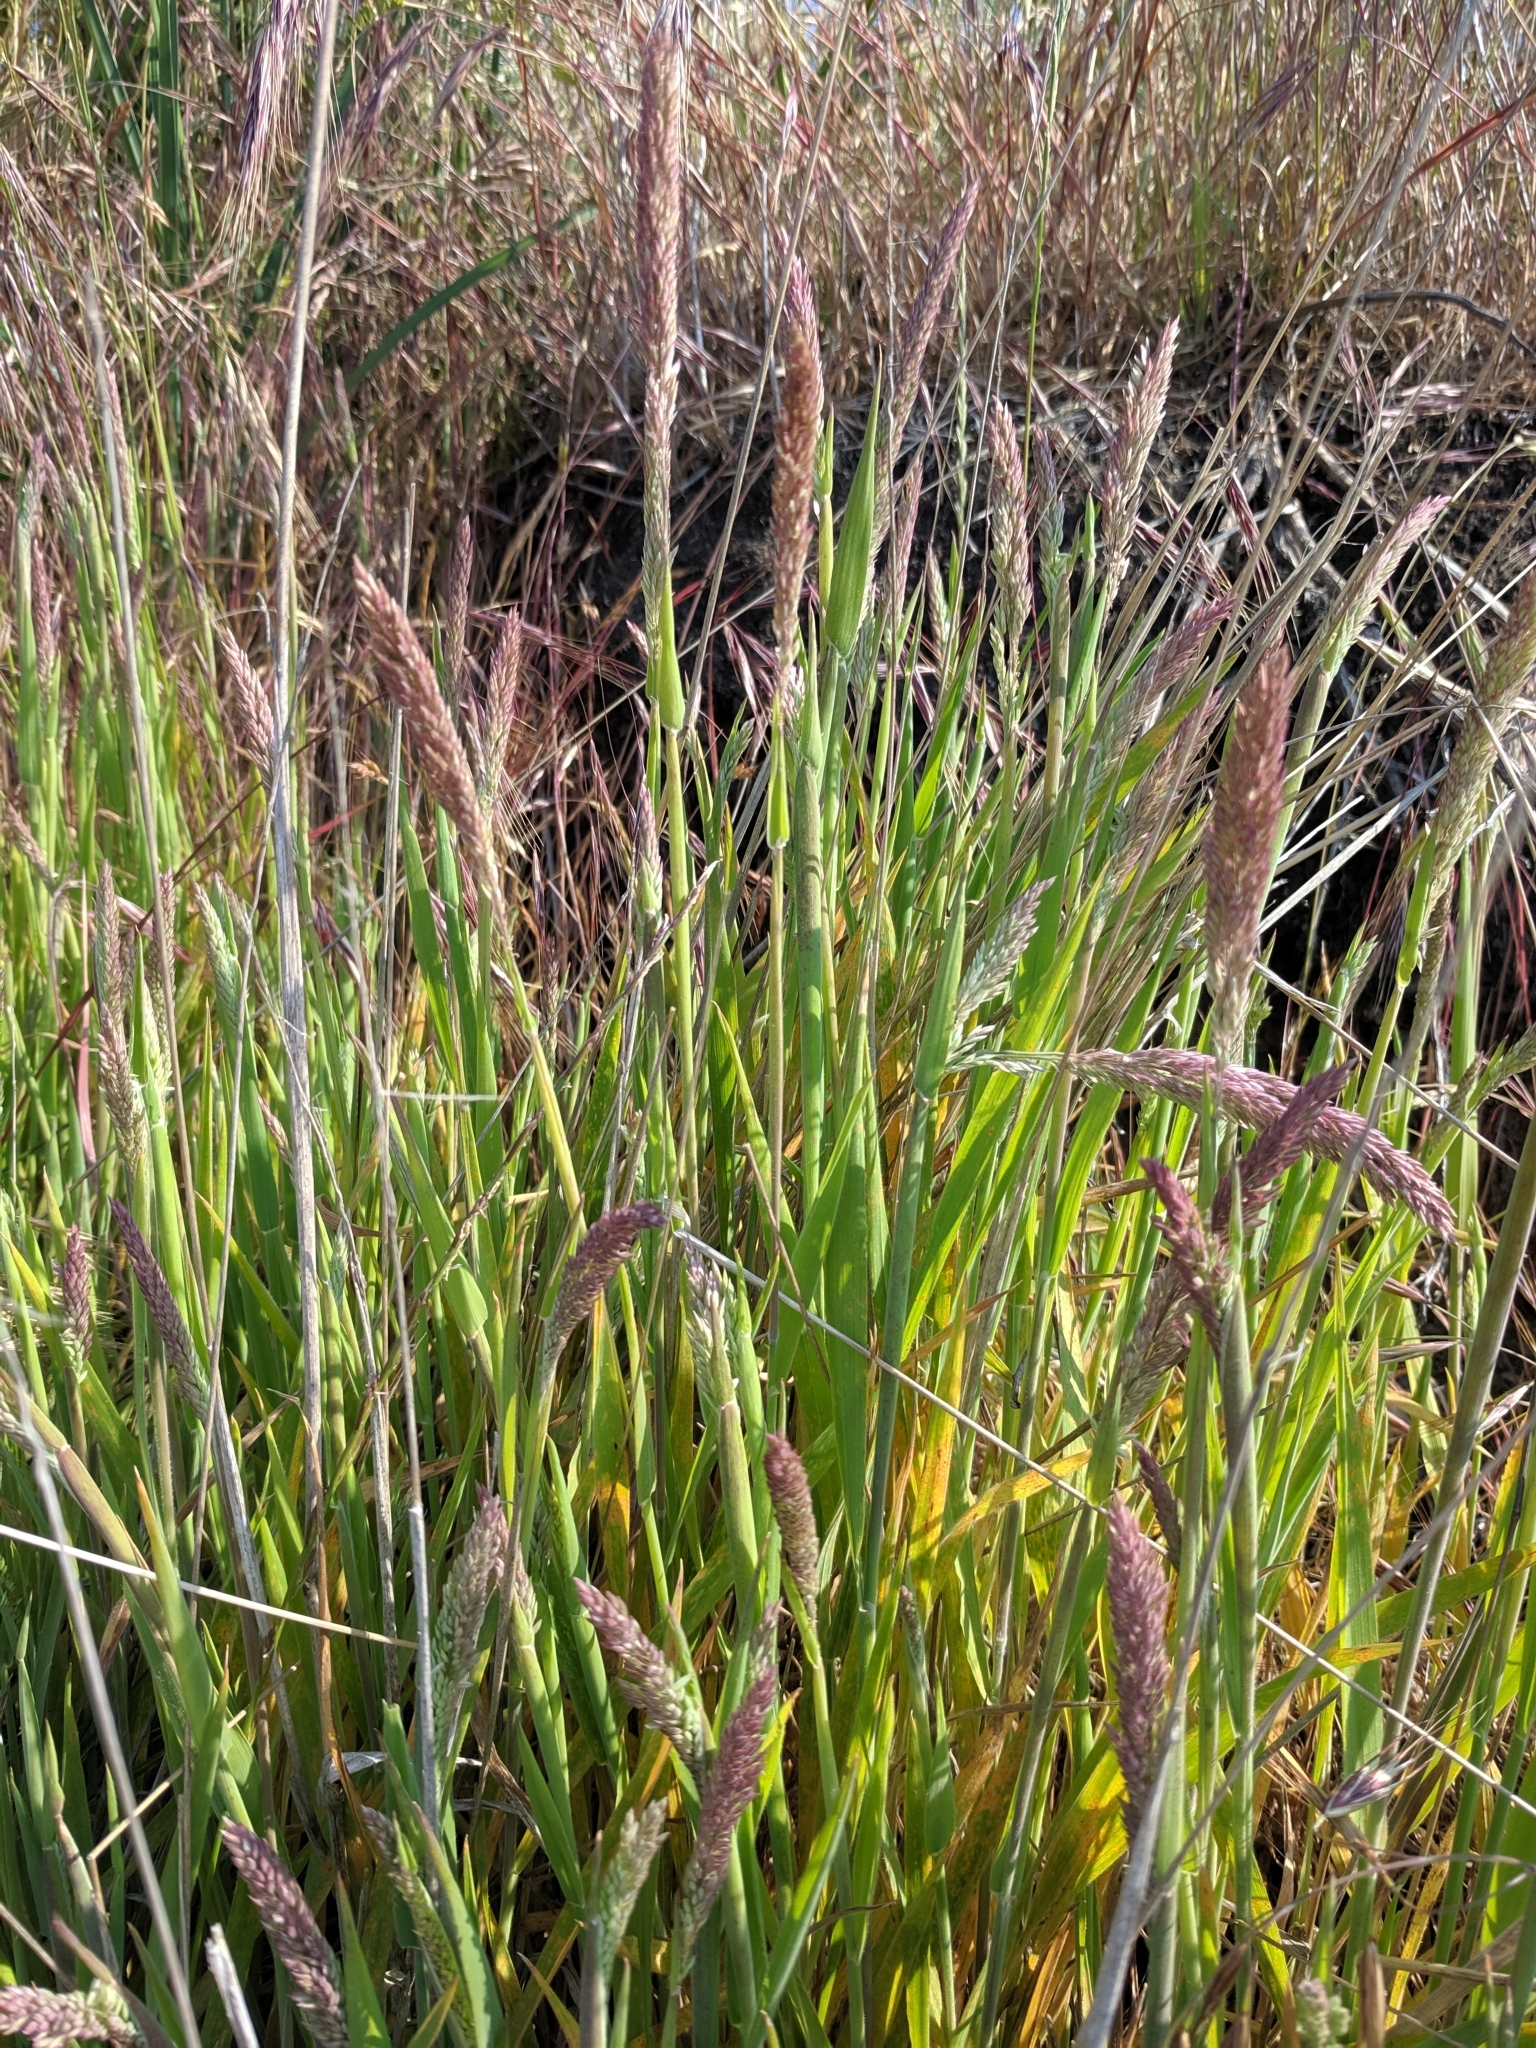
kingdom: Plantae
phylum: Tracheophyta
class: Liliopsida
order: Poales
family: Poaceae
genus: Holcus
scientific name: Holcus lanatus
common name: Yorkshire-fog
